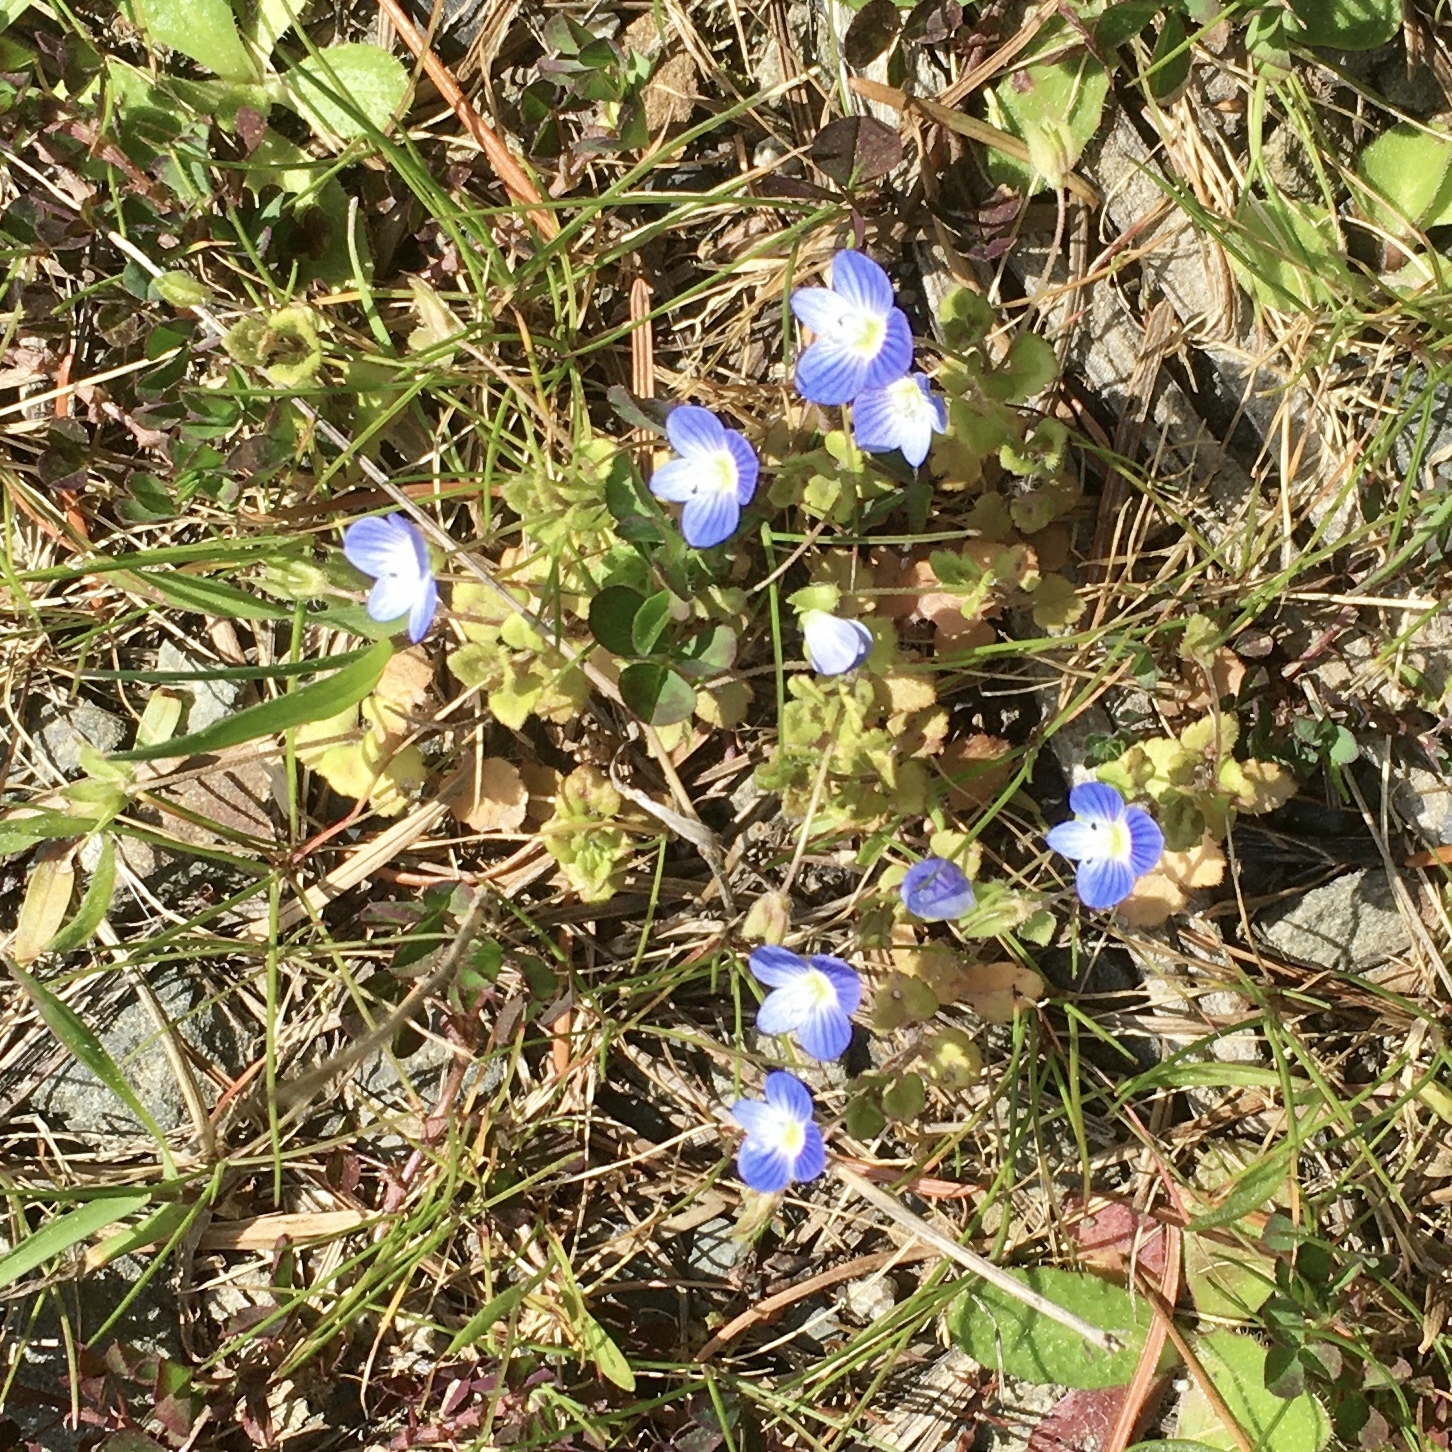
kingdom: Plantae
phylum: Tracheophyta
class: Magnoliopsida
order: Lamiales
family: Plantaginaceae
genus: Veronica
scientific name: Veronica persica
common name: Common field-speedwell
